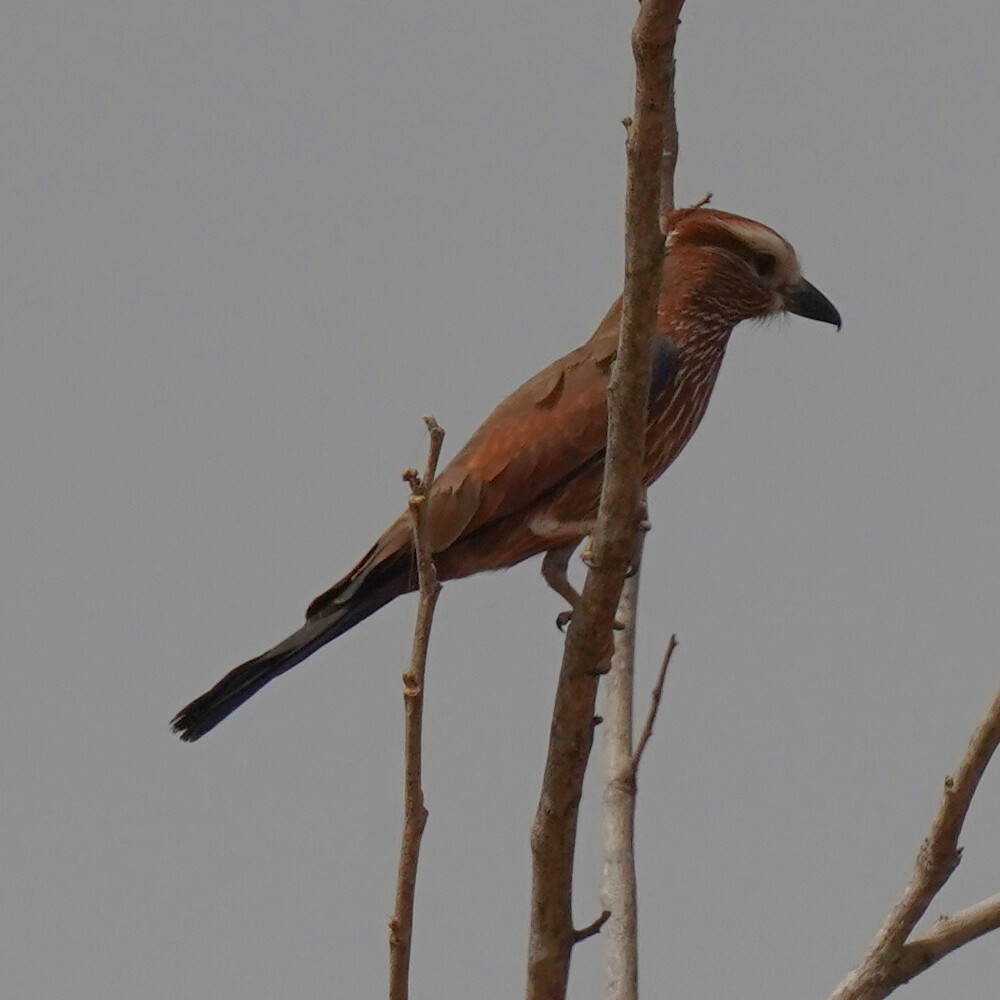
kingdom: Animalia
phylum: Chordata
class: Aves
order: Coraciiformes
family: Coraciidae
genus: Coracias
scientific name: Coracias naevius
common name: Purple roller
